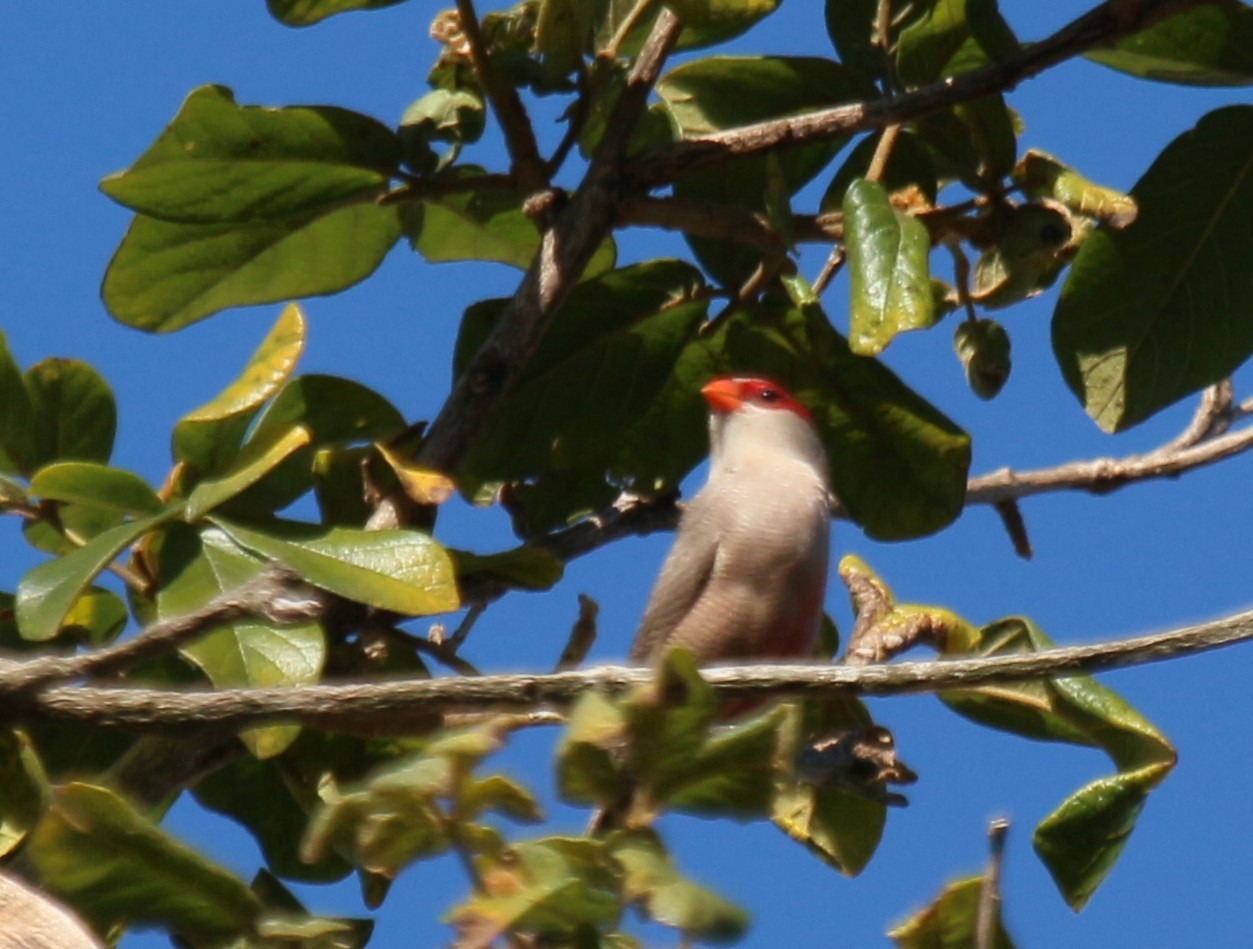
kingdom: Animalia
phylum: Chordata
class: Aves
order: Passeriformes
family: Estrildidae
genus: Estrilda
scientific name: Estrilda astrild
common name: Common waxbill
